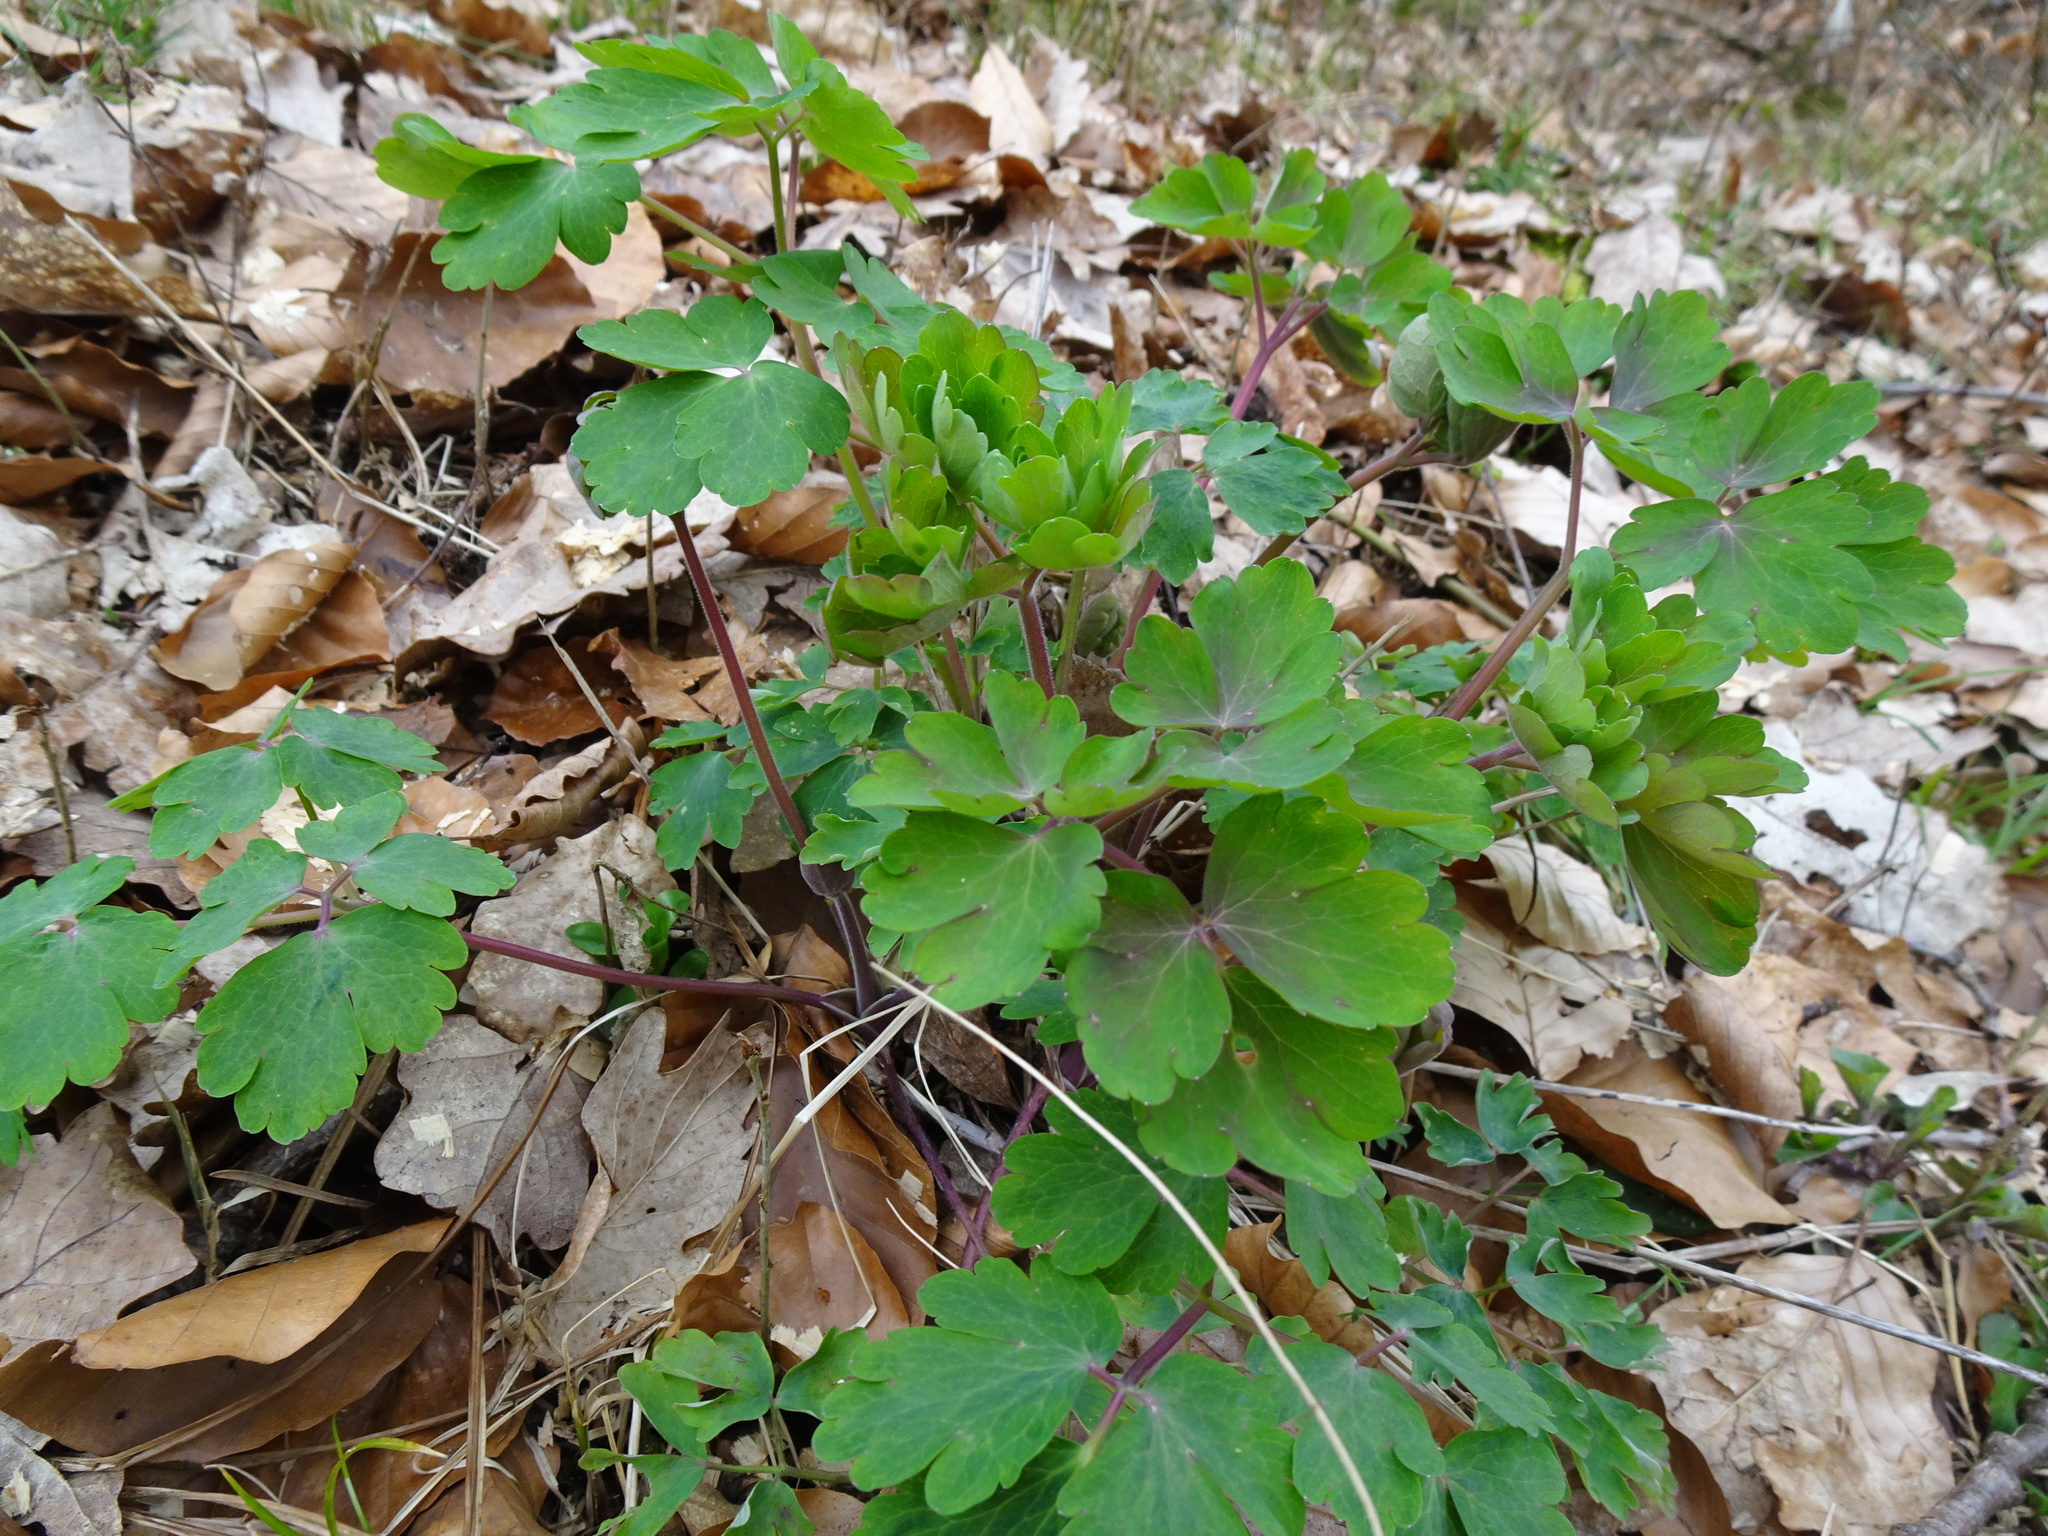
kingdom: Plantae
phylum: Tracheophyta
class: Magnoliopsida
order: Ranunculales
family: Ranunculaceae
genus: Aquilegia
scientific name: Aquilegia vulgaris
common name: Columbine
